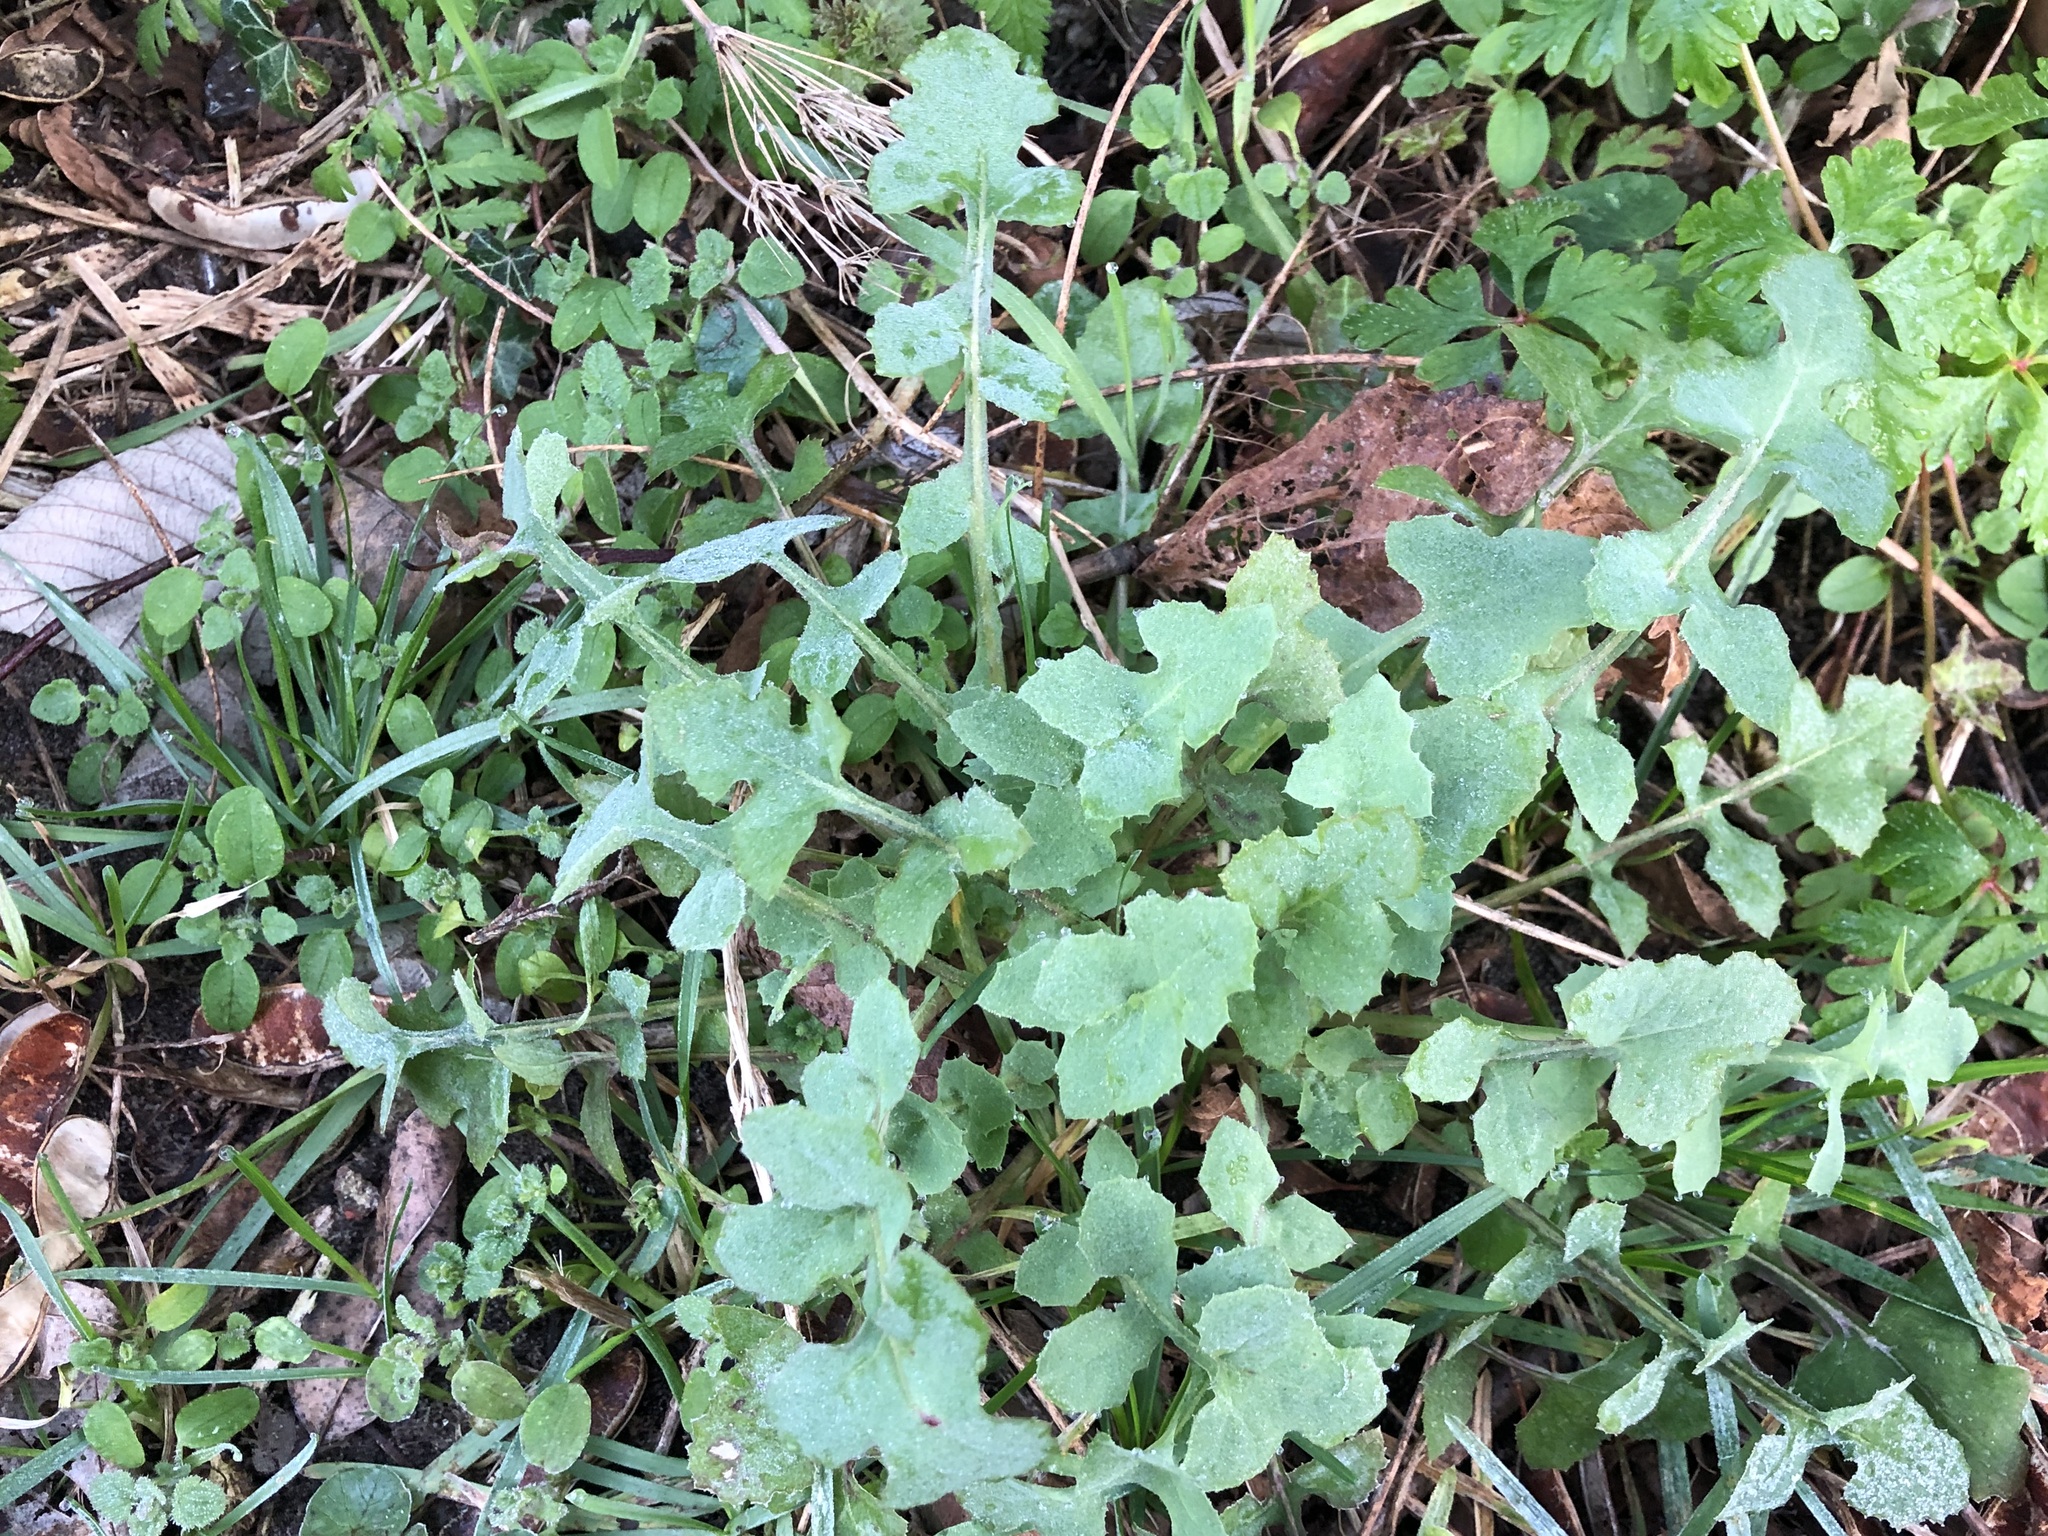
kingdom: Plantae
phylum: Tracheophyta
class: Magnoliopsida
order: Asterales
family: Asteraceae
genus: Sonchus
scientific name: Sonchus oleraceus
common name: Common sowthistle
